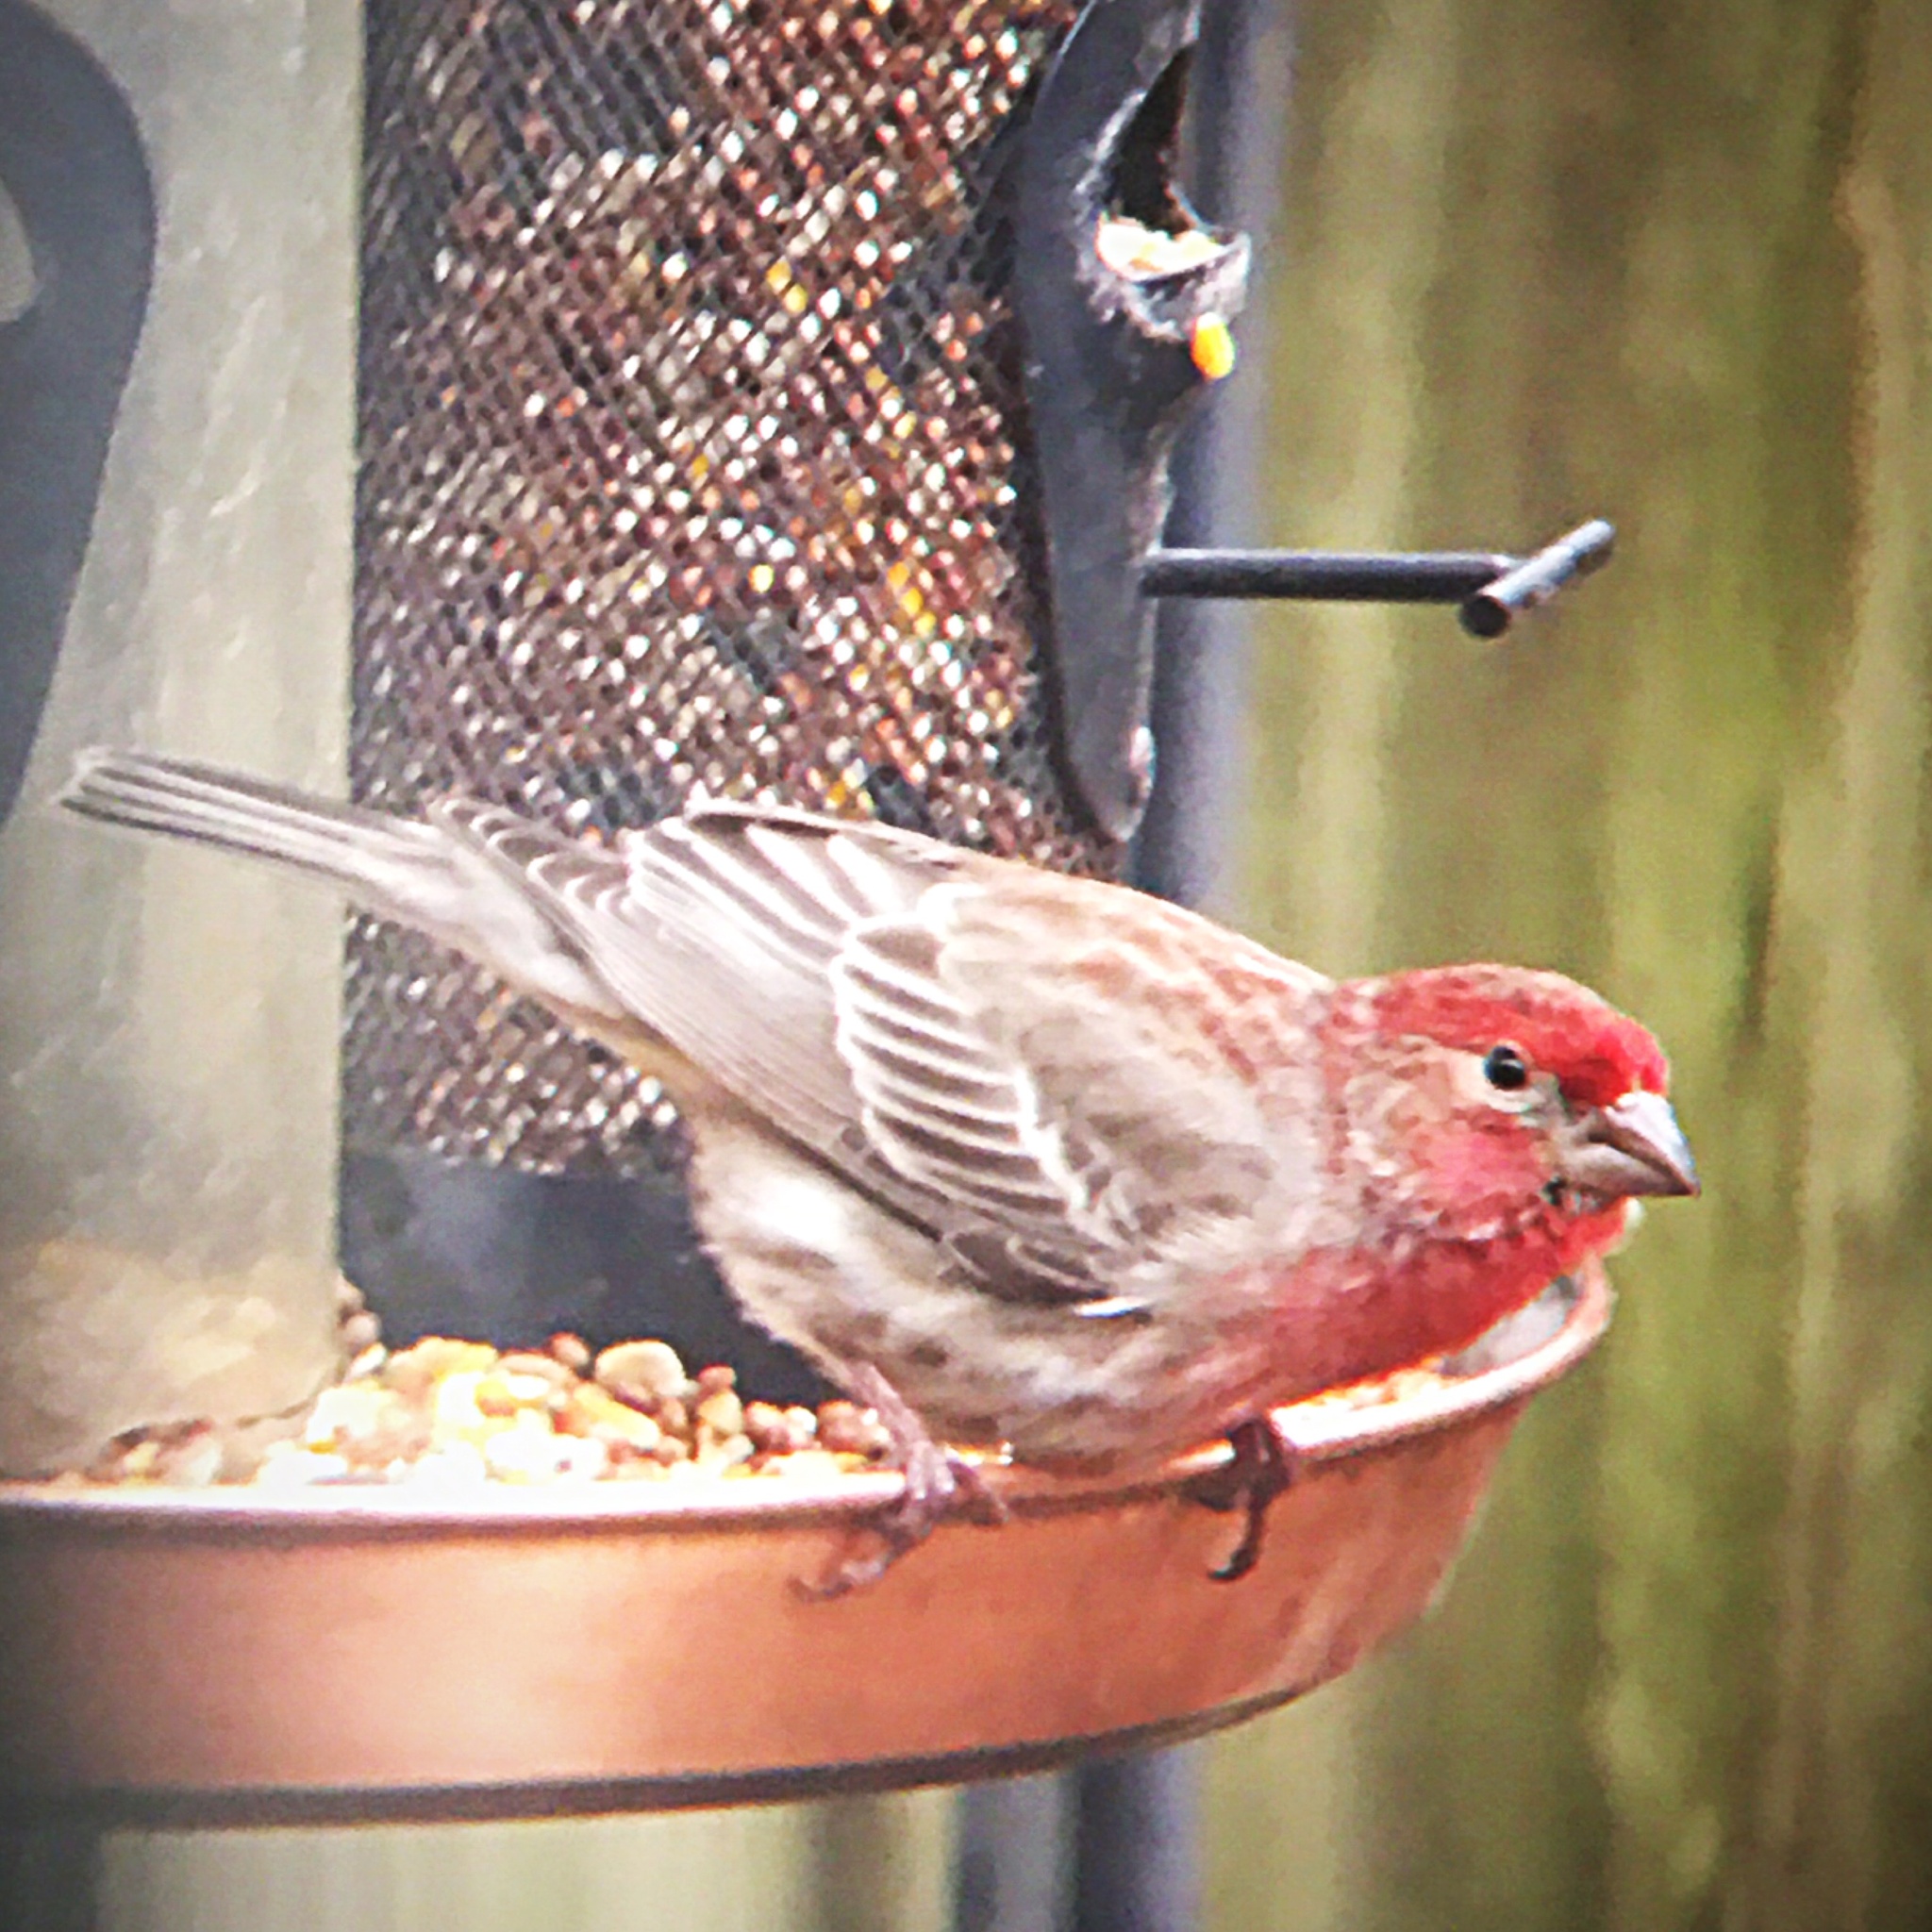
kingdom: Animalia
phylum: Chordata
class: Aves
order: Passeriformes
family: Fringillidae
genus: Haemorhous
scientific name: Haemorhous mexicanus
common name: House finch
